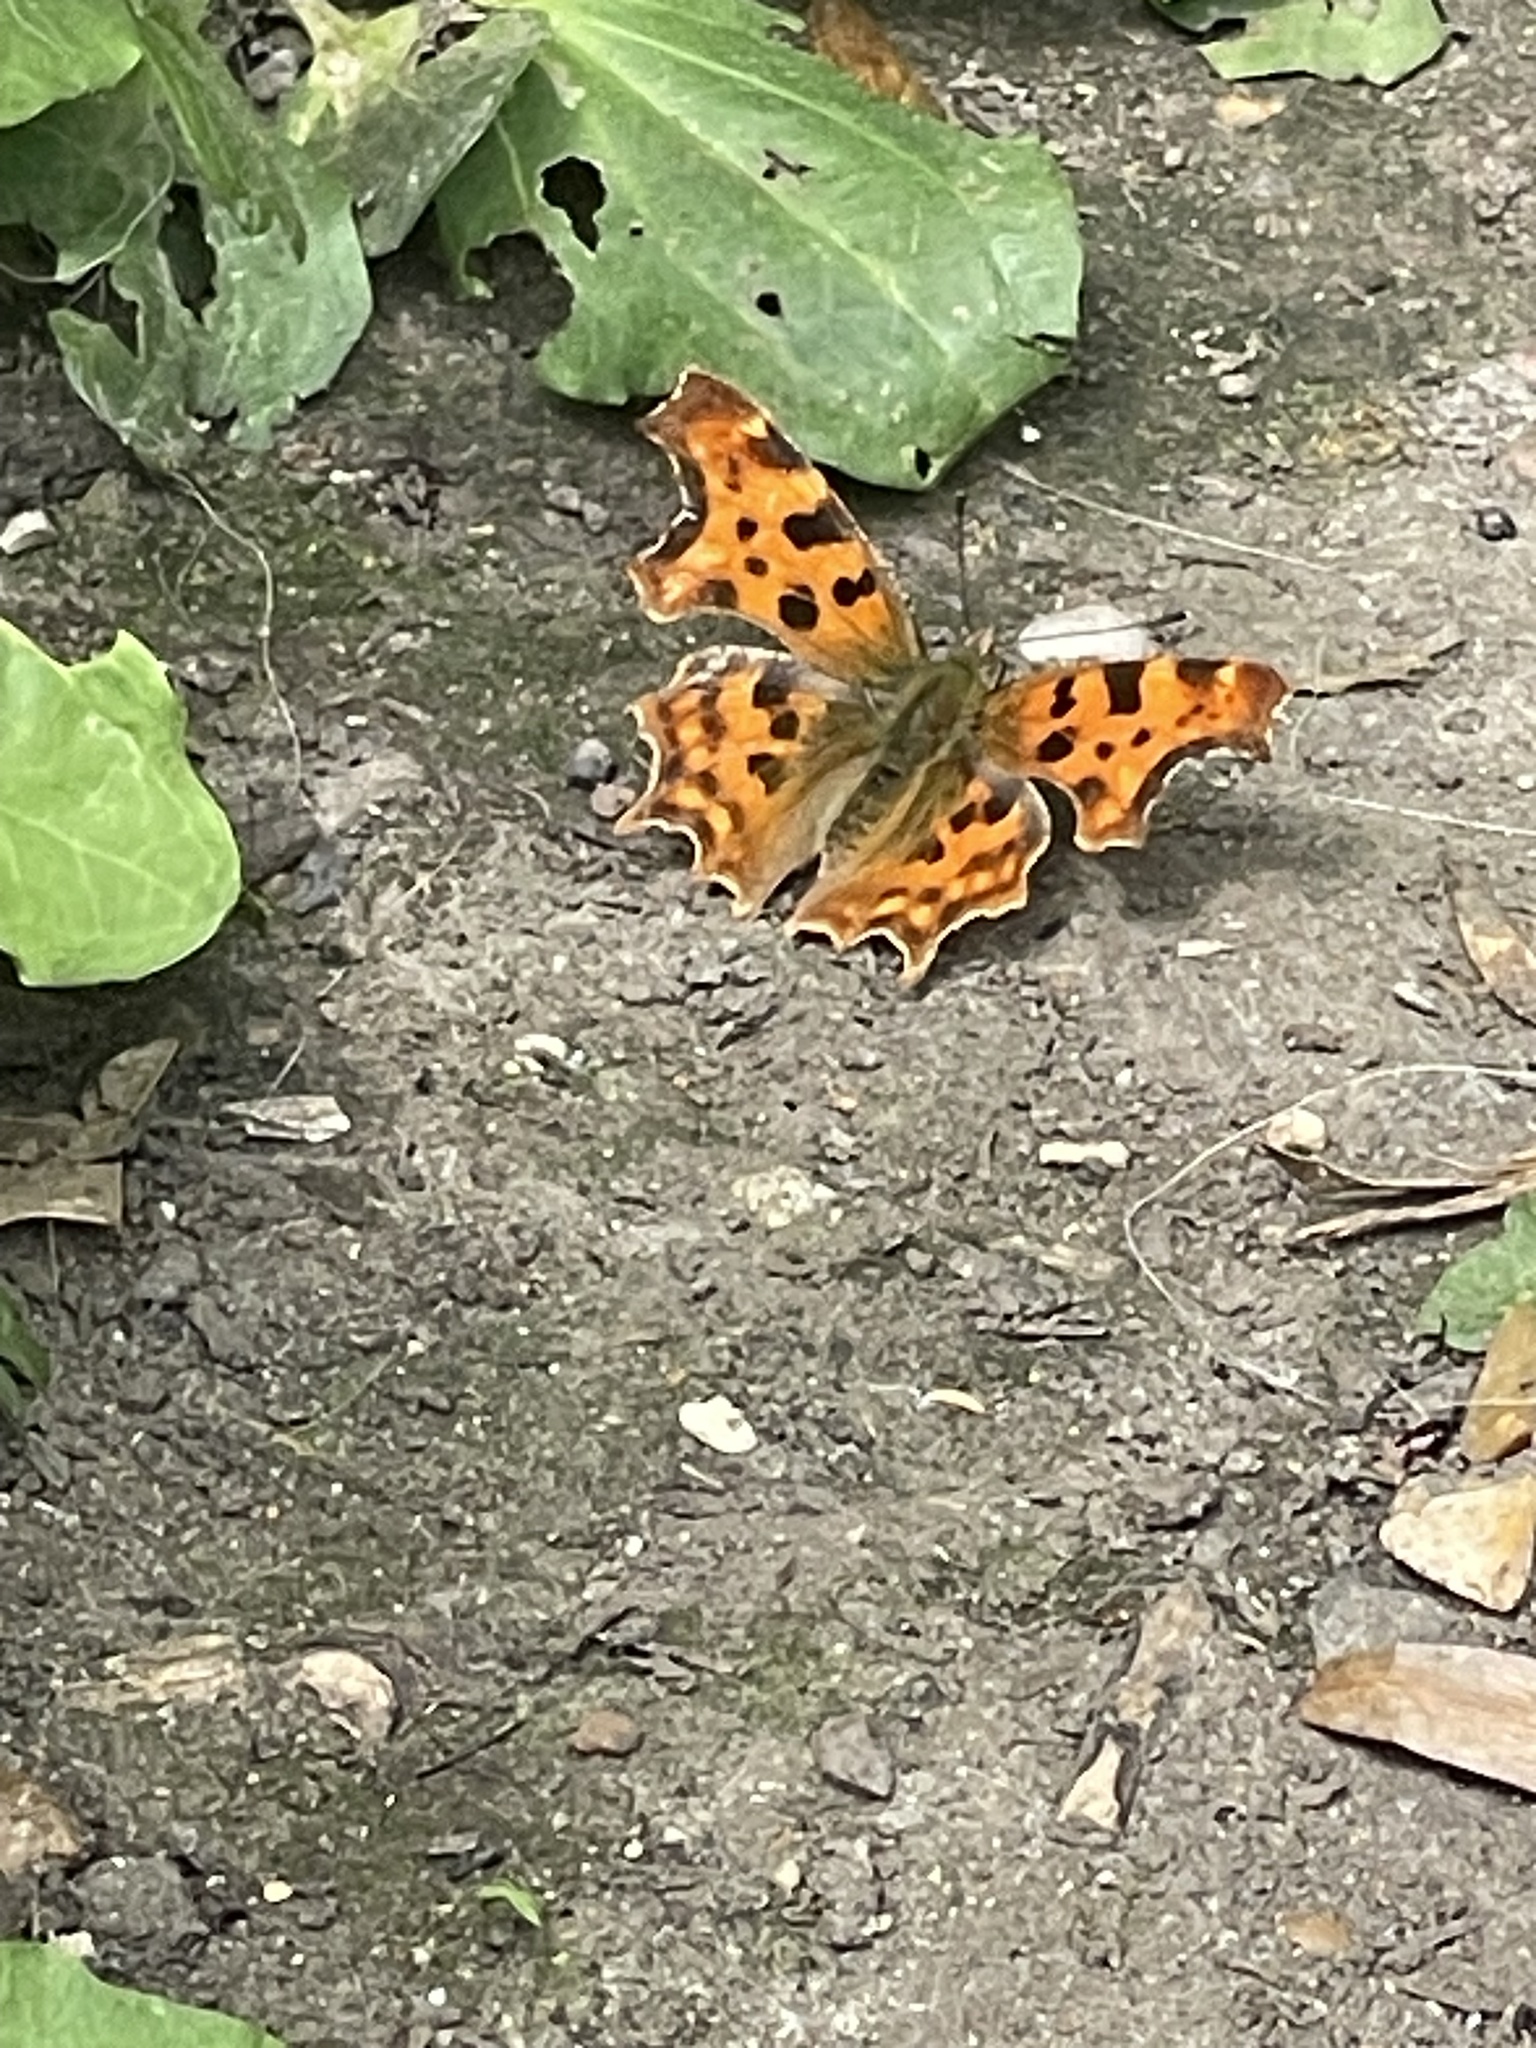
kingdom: Animalia
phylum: Arthropoda
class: Insecta
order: Lepidoptera
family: Nymphalidae
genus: Polygonia
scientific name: Polygonia c-album
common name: Comma
